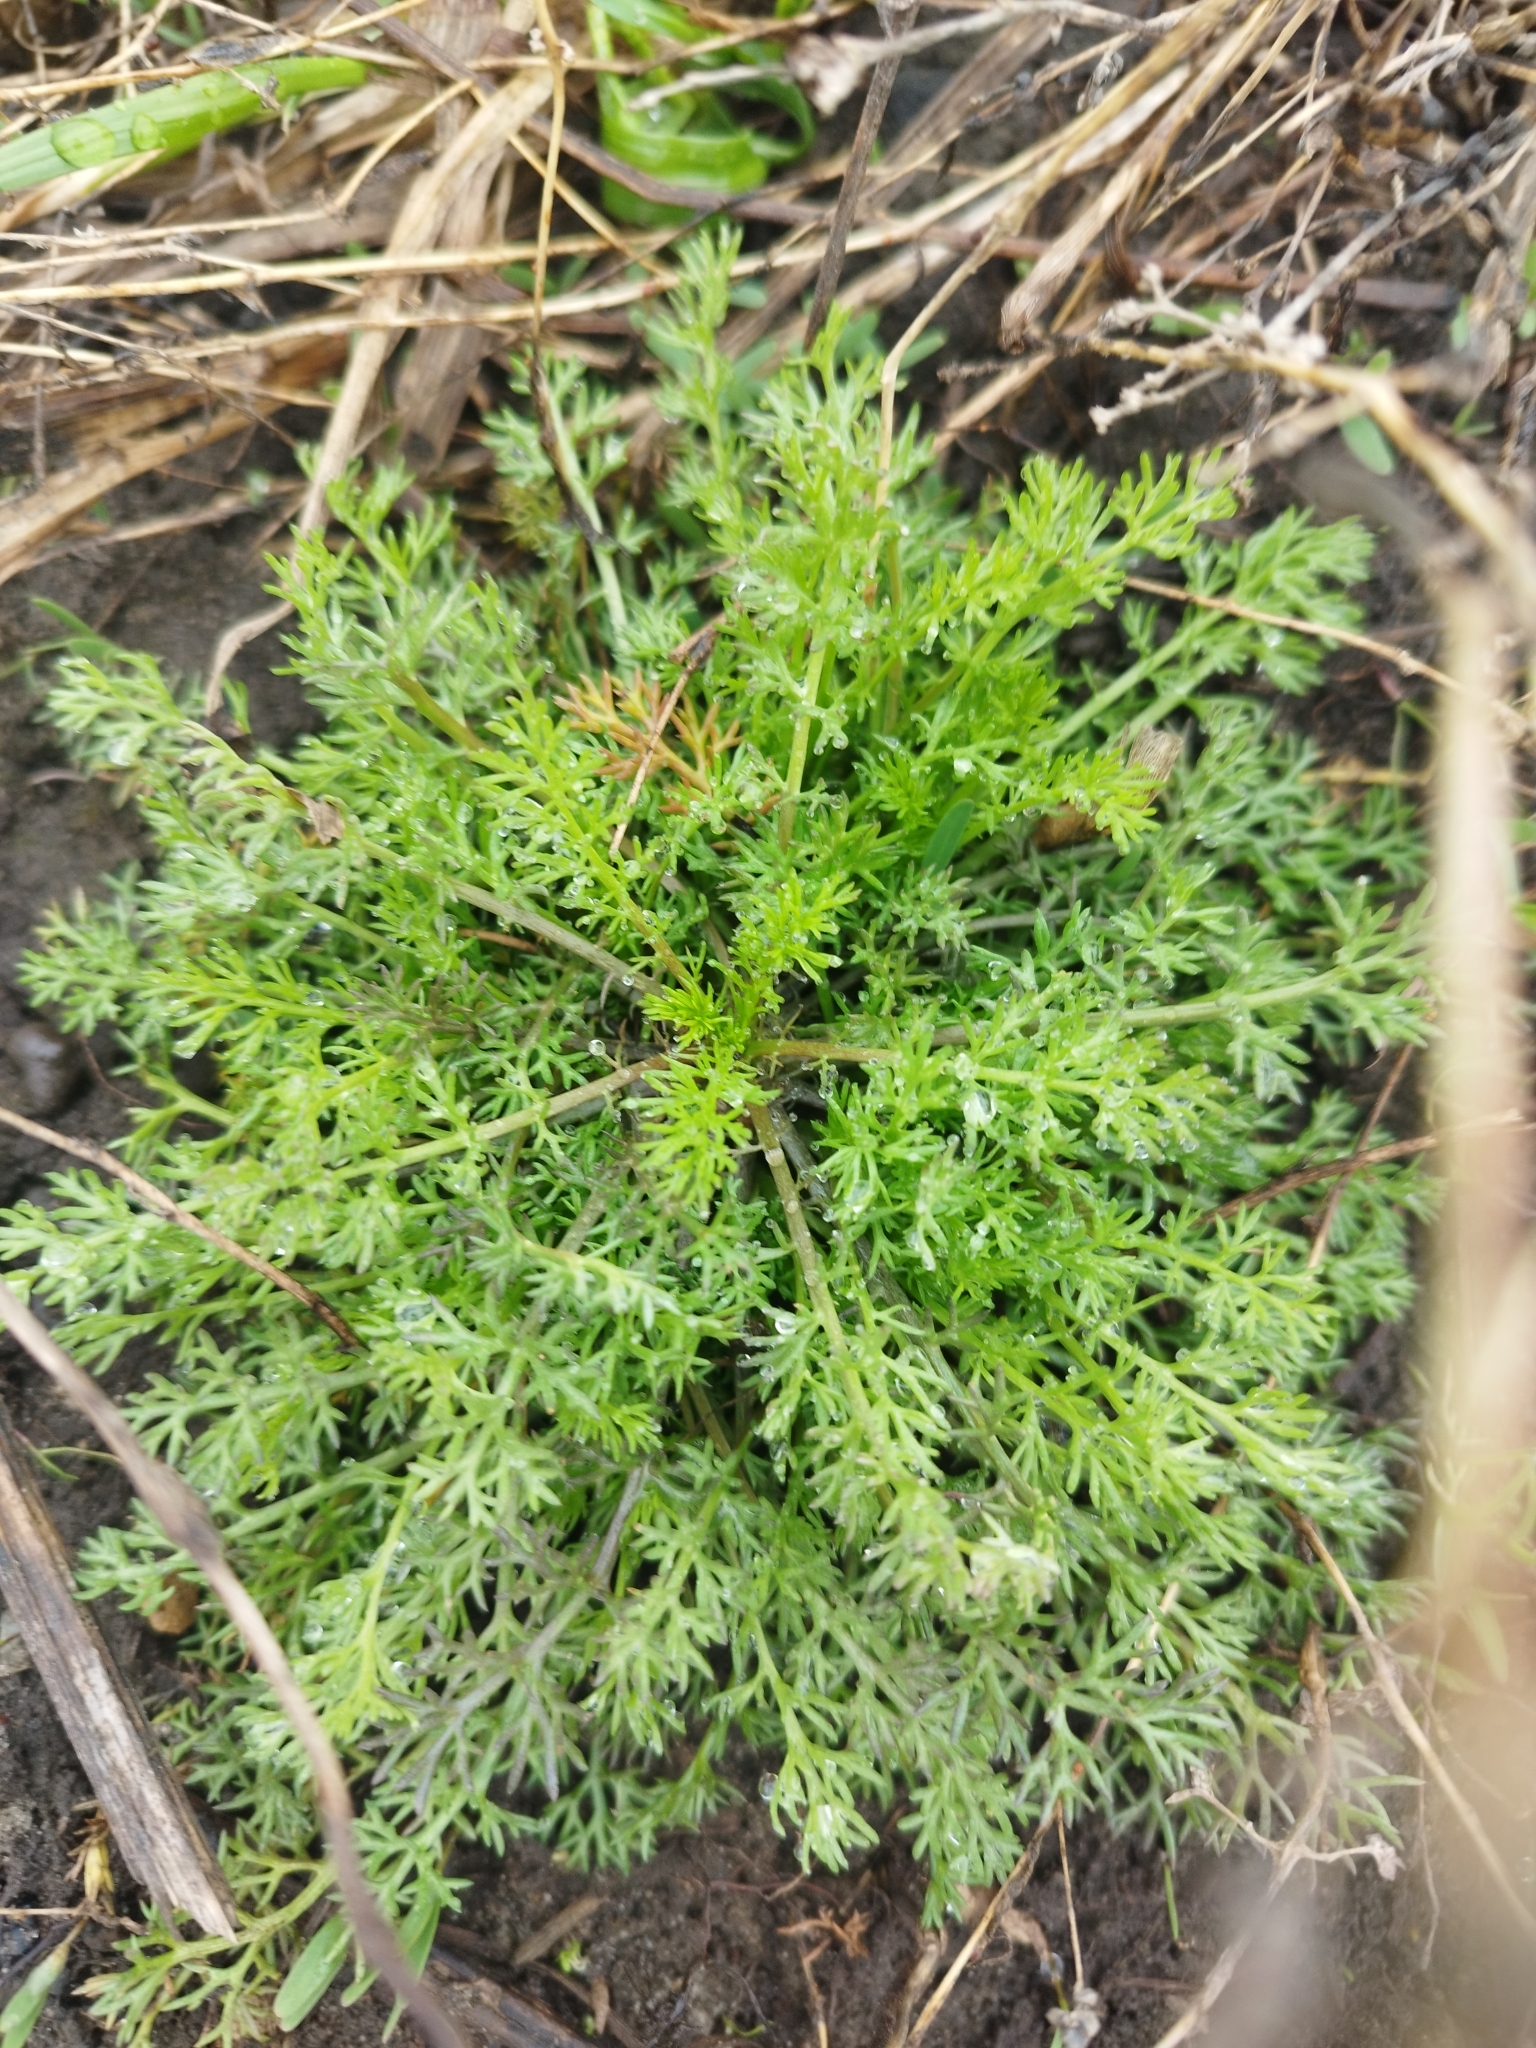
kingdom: Plantae
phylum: Tracheophyta
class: Magnoliopsida
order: Asterales
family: Asteraceae
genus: Tripleurospermum
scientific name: Tripleurospermum inodorum
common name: Scentless mayweed
